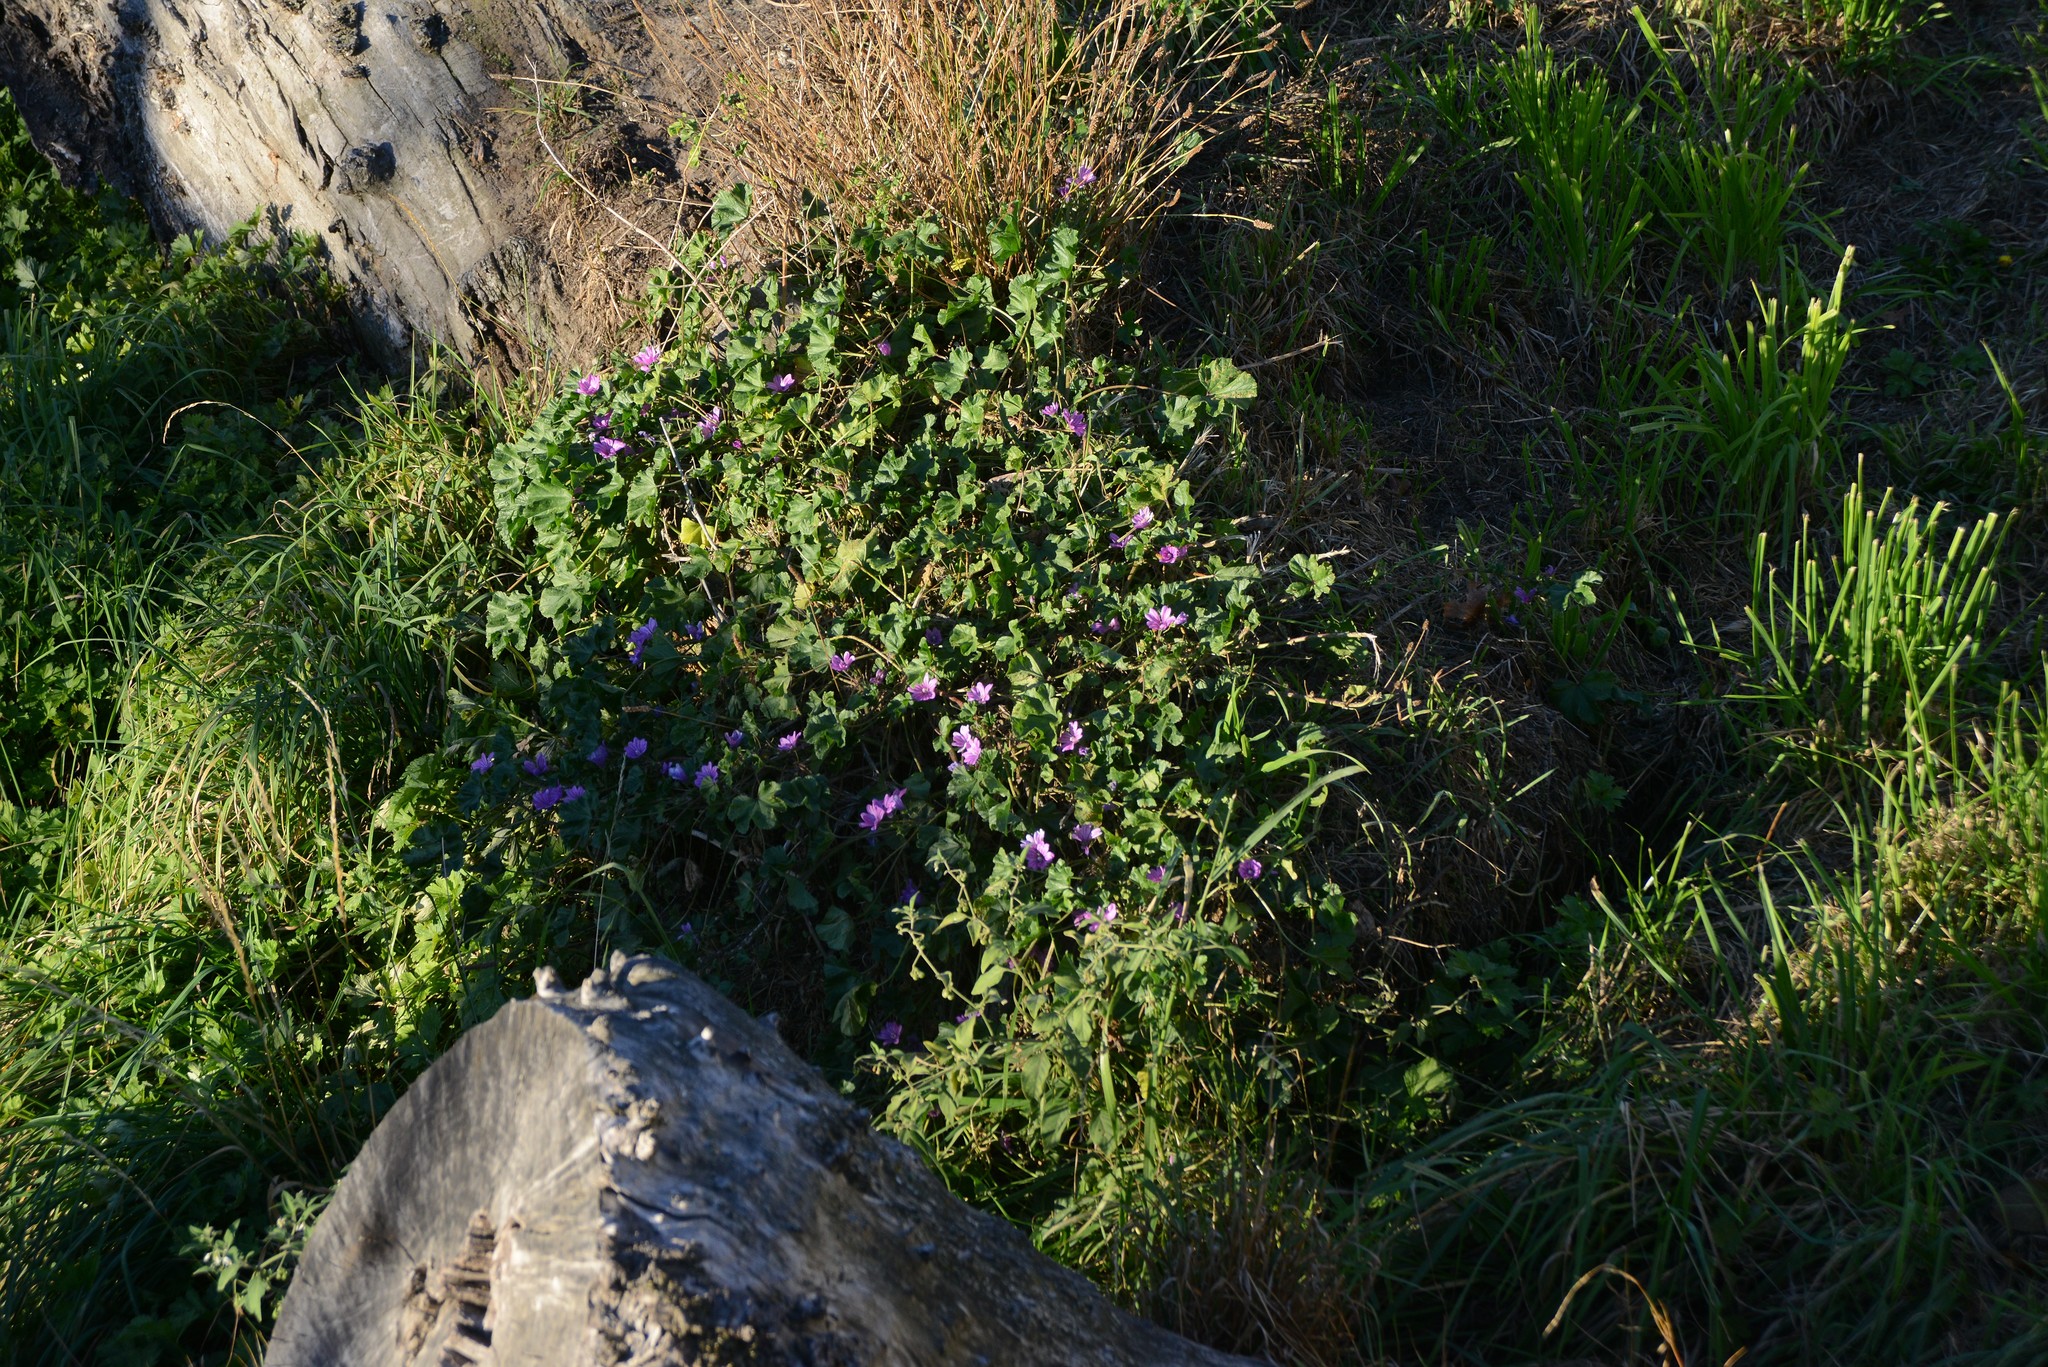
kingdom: Plantae
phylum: Tracheophyta
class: Magnoliopsida
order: Malvales
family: Malvaceae
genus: Malva
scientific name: Malva sylvestris
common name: Common mallow
